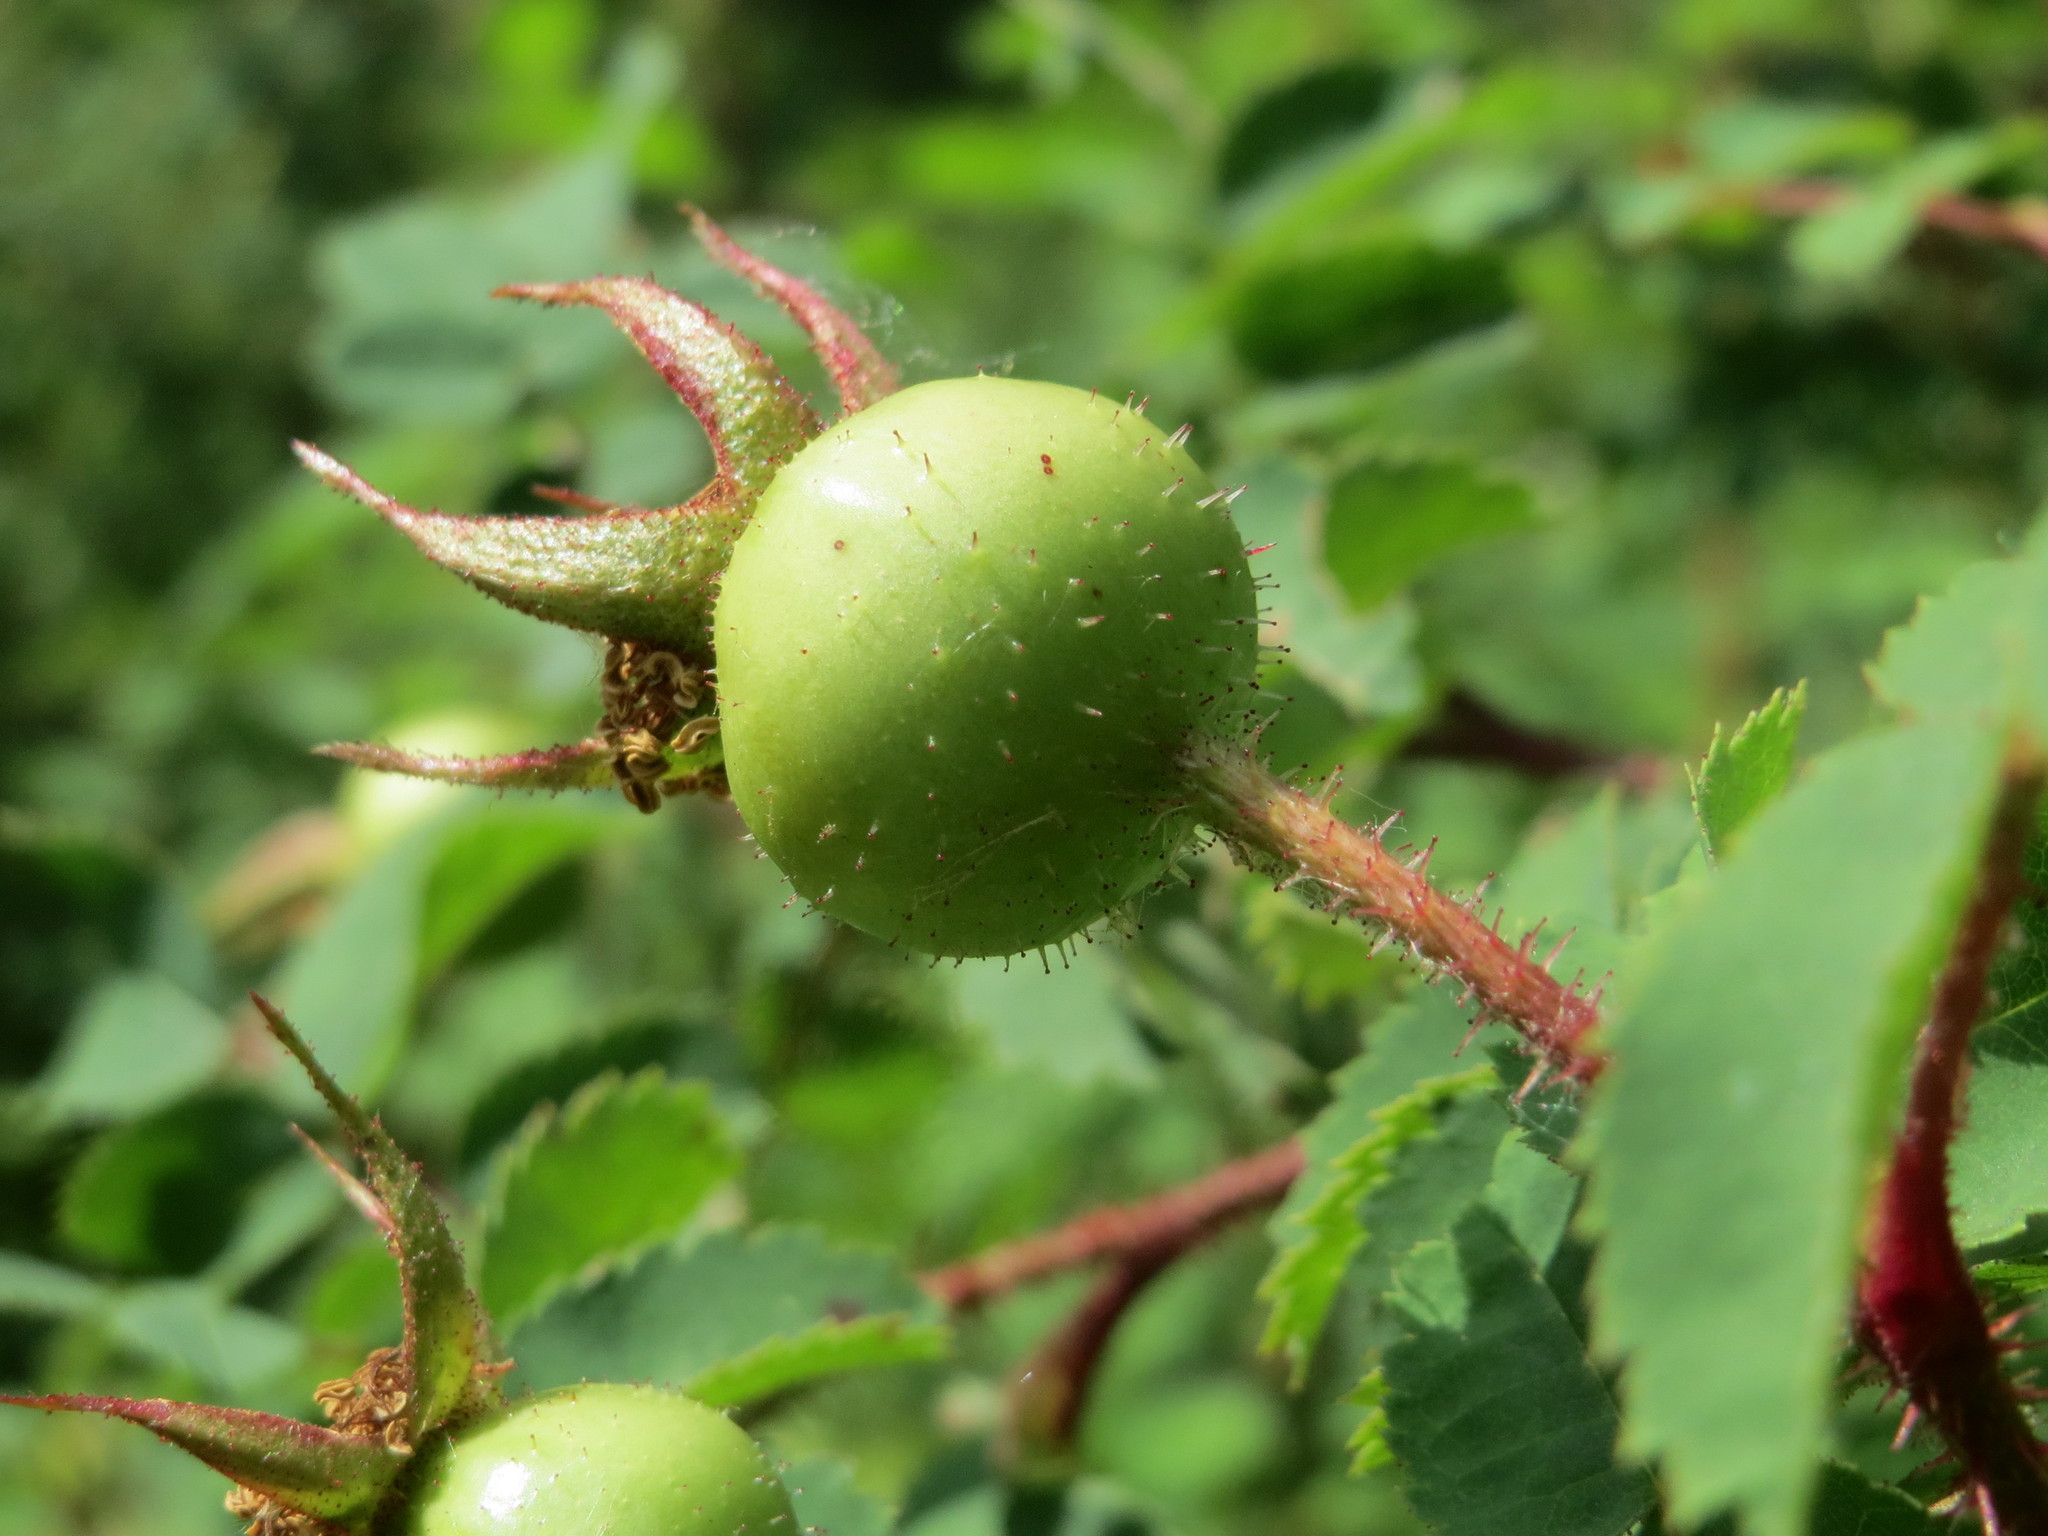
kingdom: Plantae
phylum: Tracheophyta
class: Magnoliopsida
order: Rosales
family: Rosaceae
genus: Rosa
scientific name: Rosa spinosissima
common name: Burnet rose
